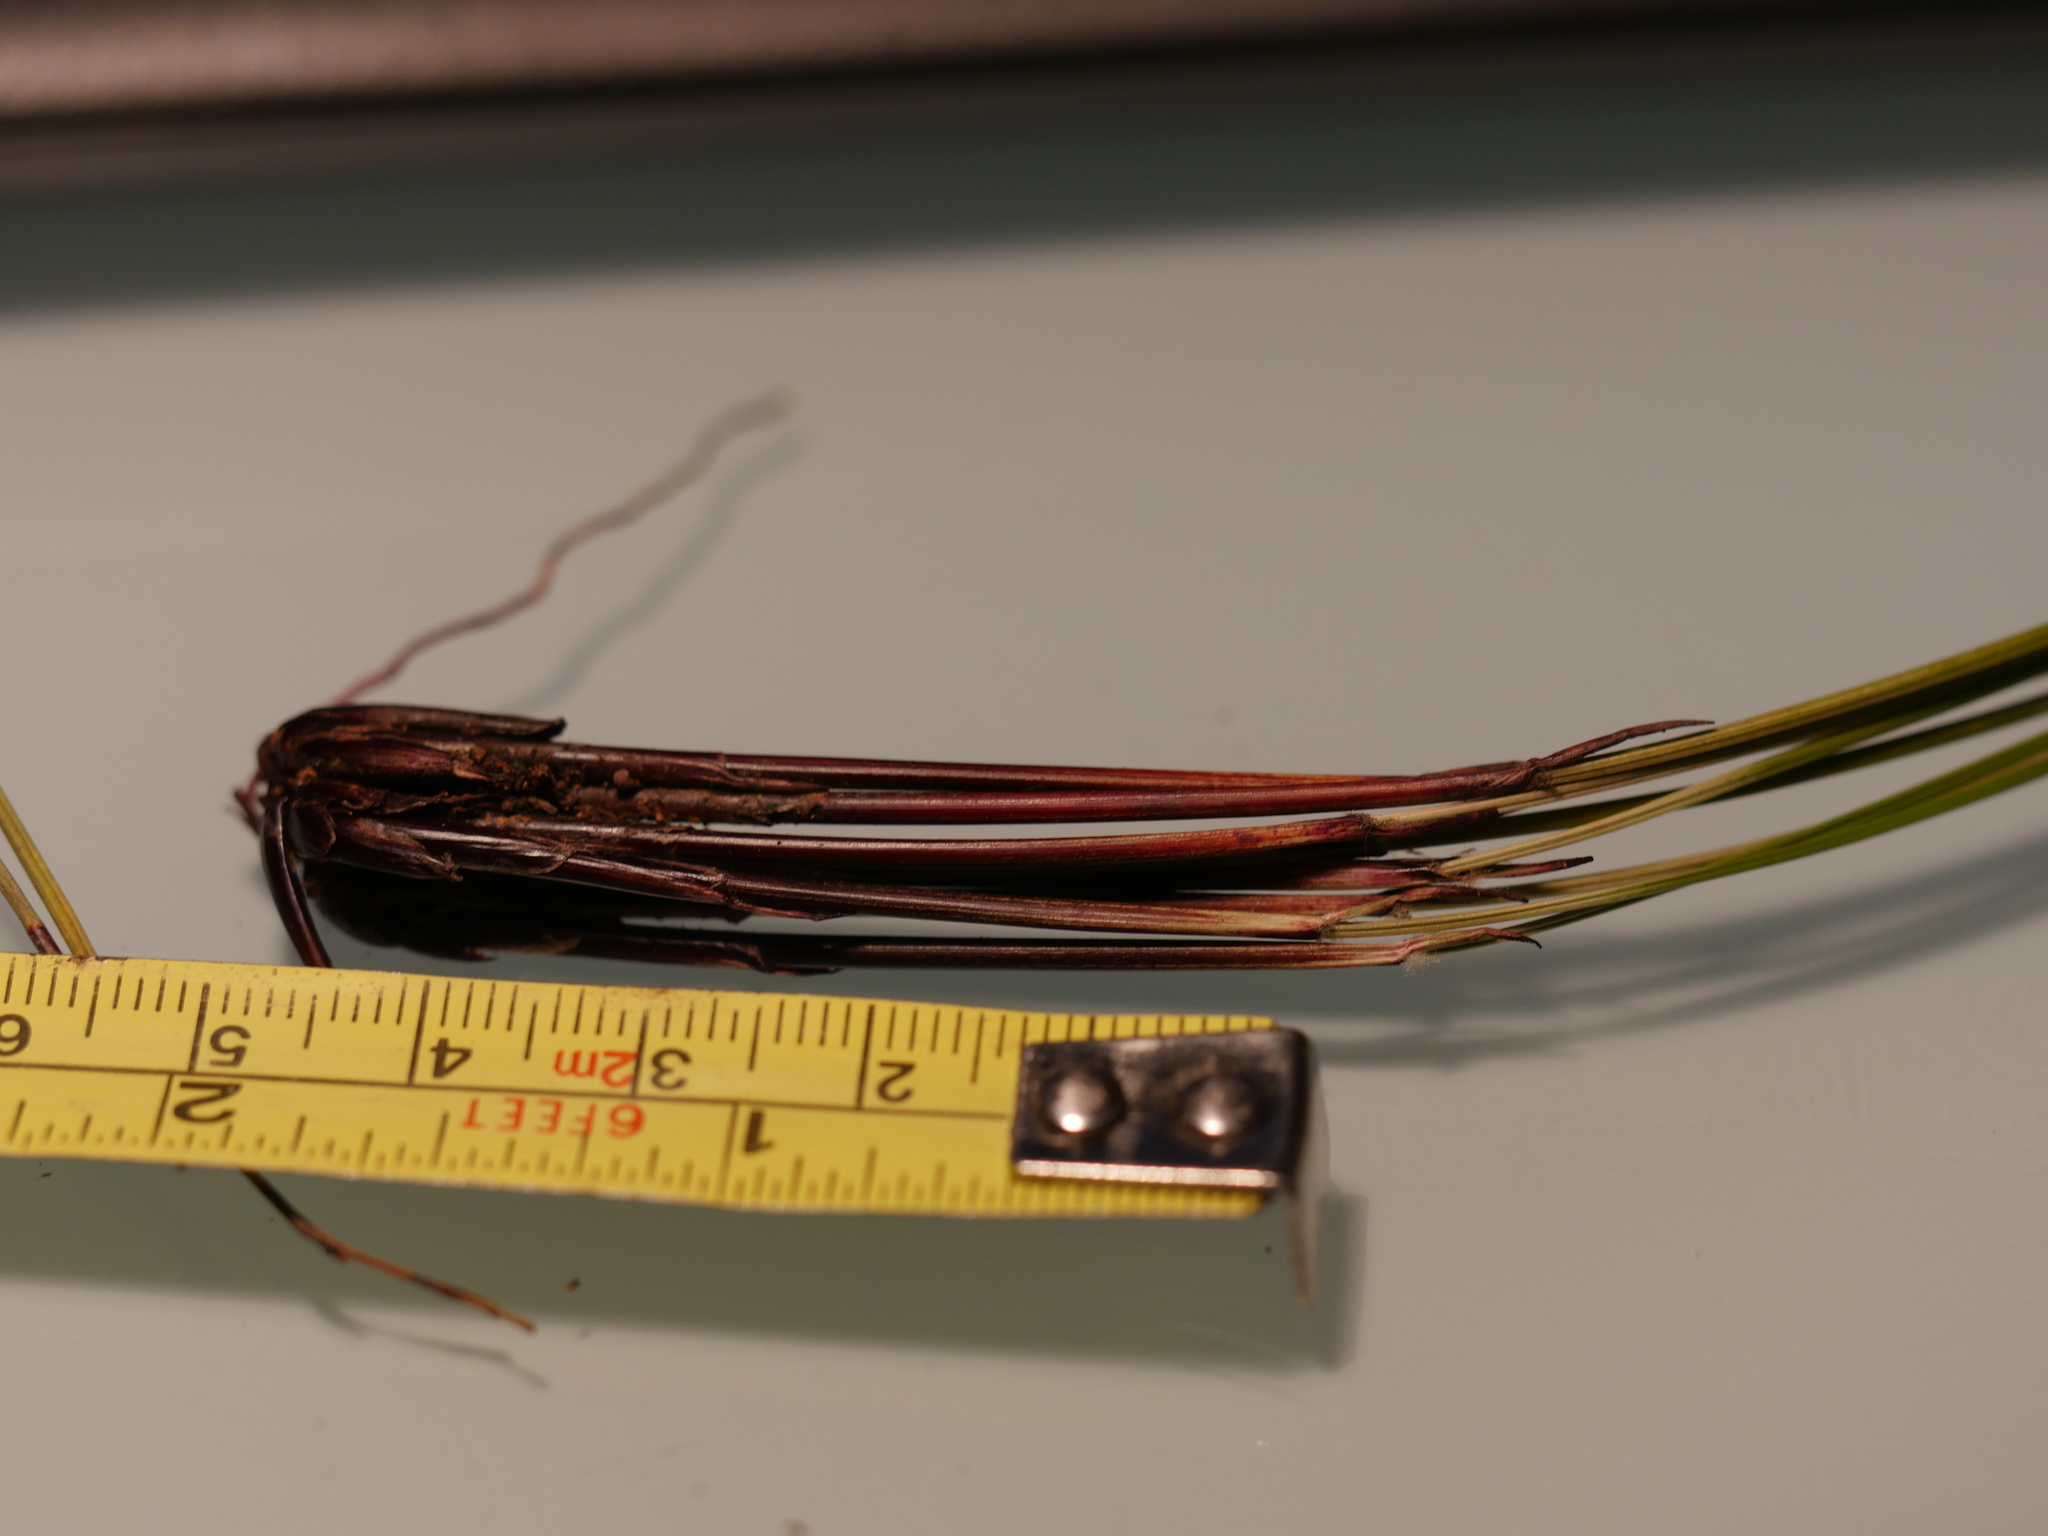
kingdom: Plantae
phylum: Tracheophyta
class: Liliopsida
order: Poales
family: Cyperaceae
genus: Schoenus
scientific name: Schoenus tendo
